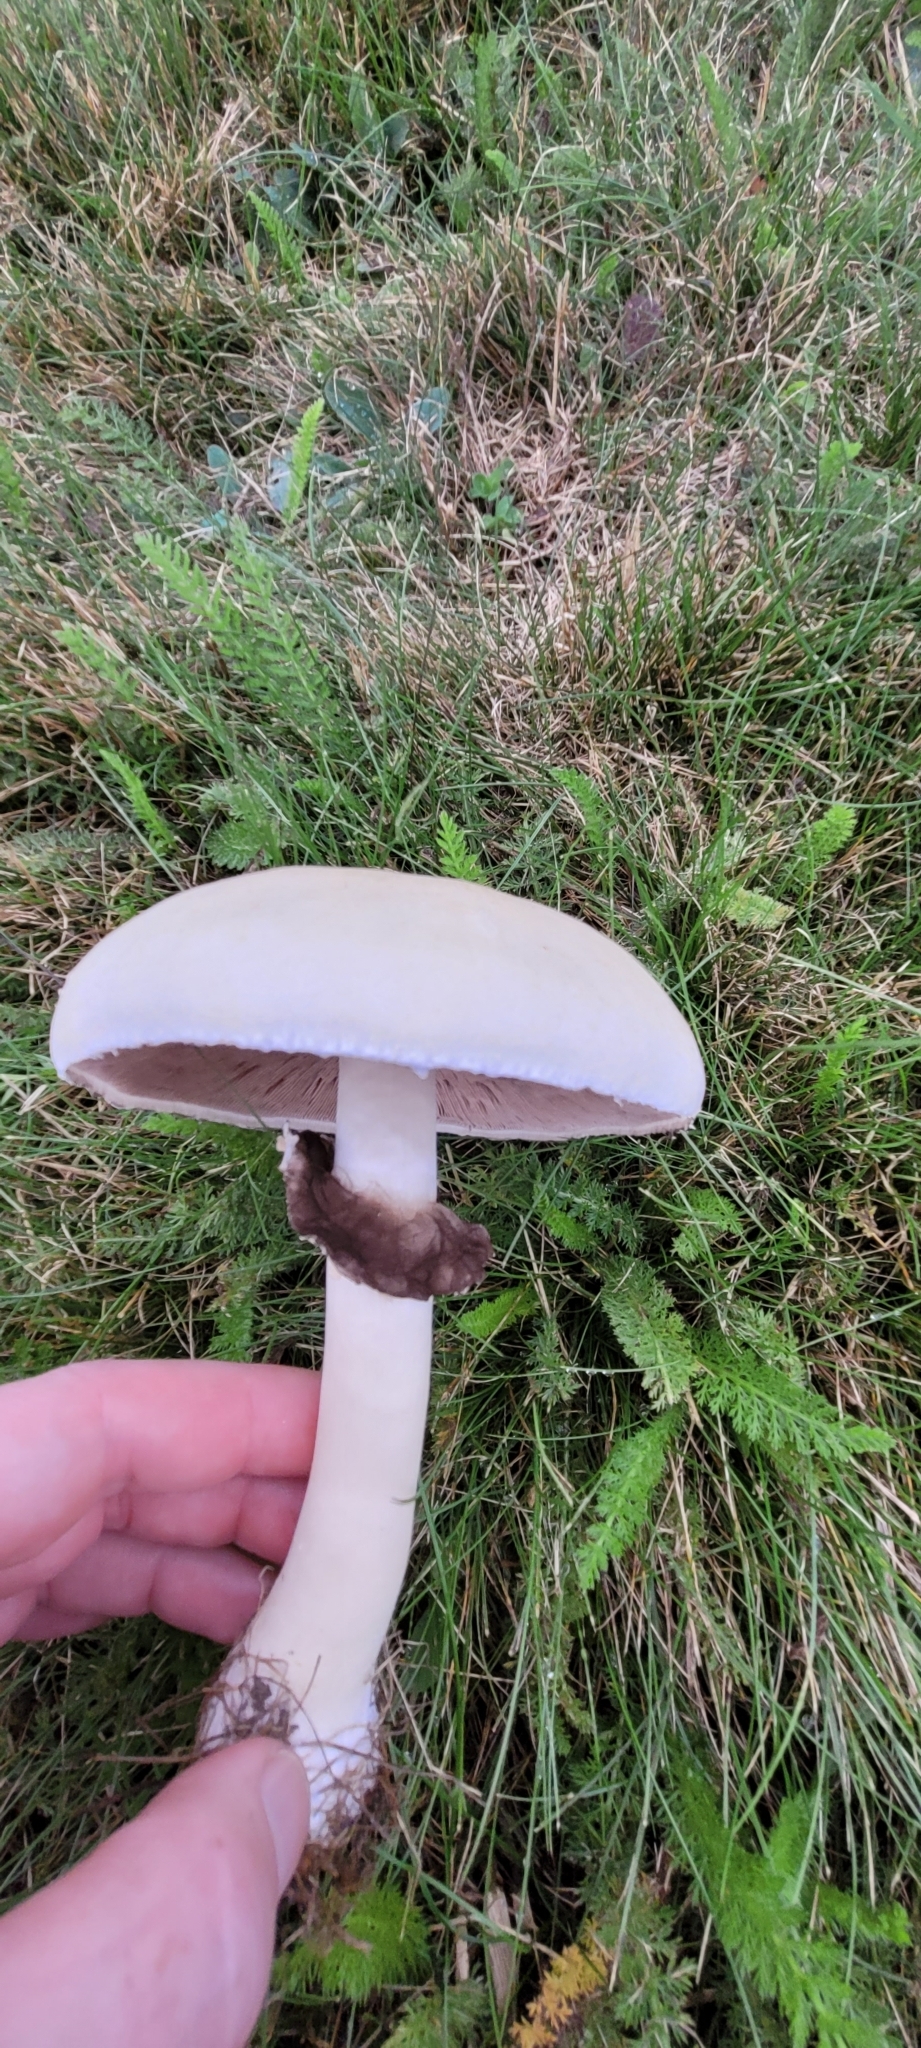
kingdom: Fungi
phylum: Basidiomycota
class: Agaricomycetes
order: Agaricales
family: Agaricaceae
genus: Agaricus
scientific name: Agaricus arvensis
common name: Horse mushroom
